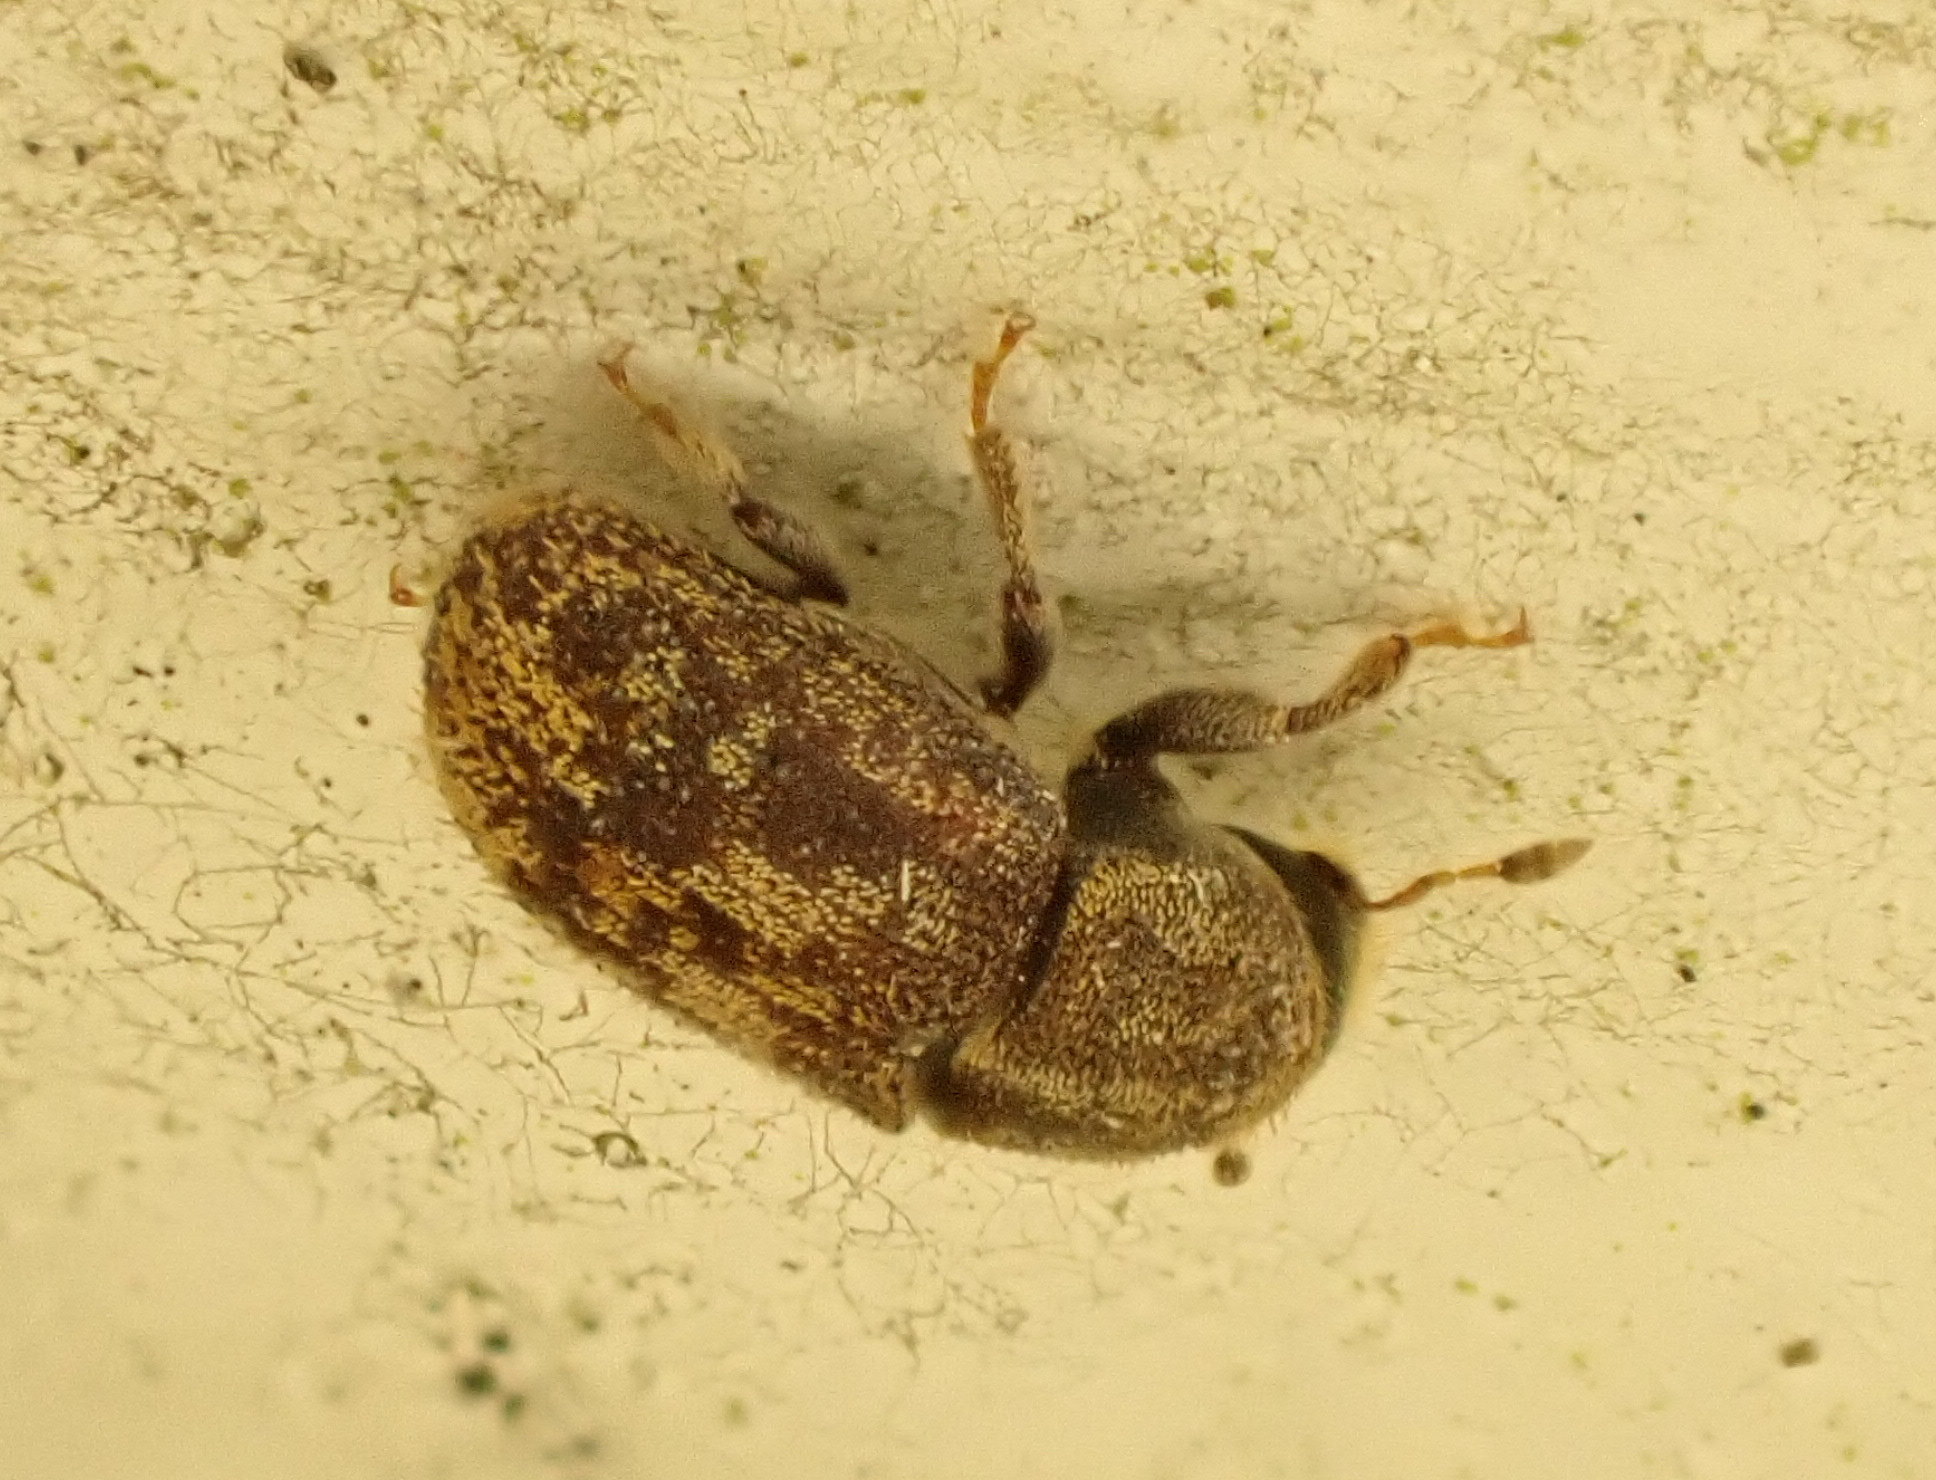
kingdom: Animalia
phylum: Arthropoda
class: Insecta
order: Coleoptera
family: Curculionidae
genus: Chaetoptelius
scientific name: Chaetoptelius mundulus
